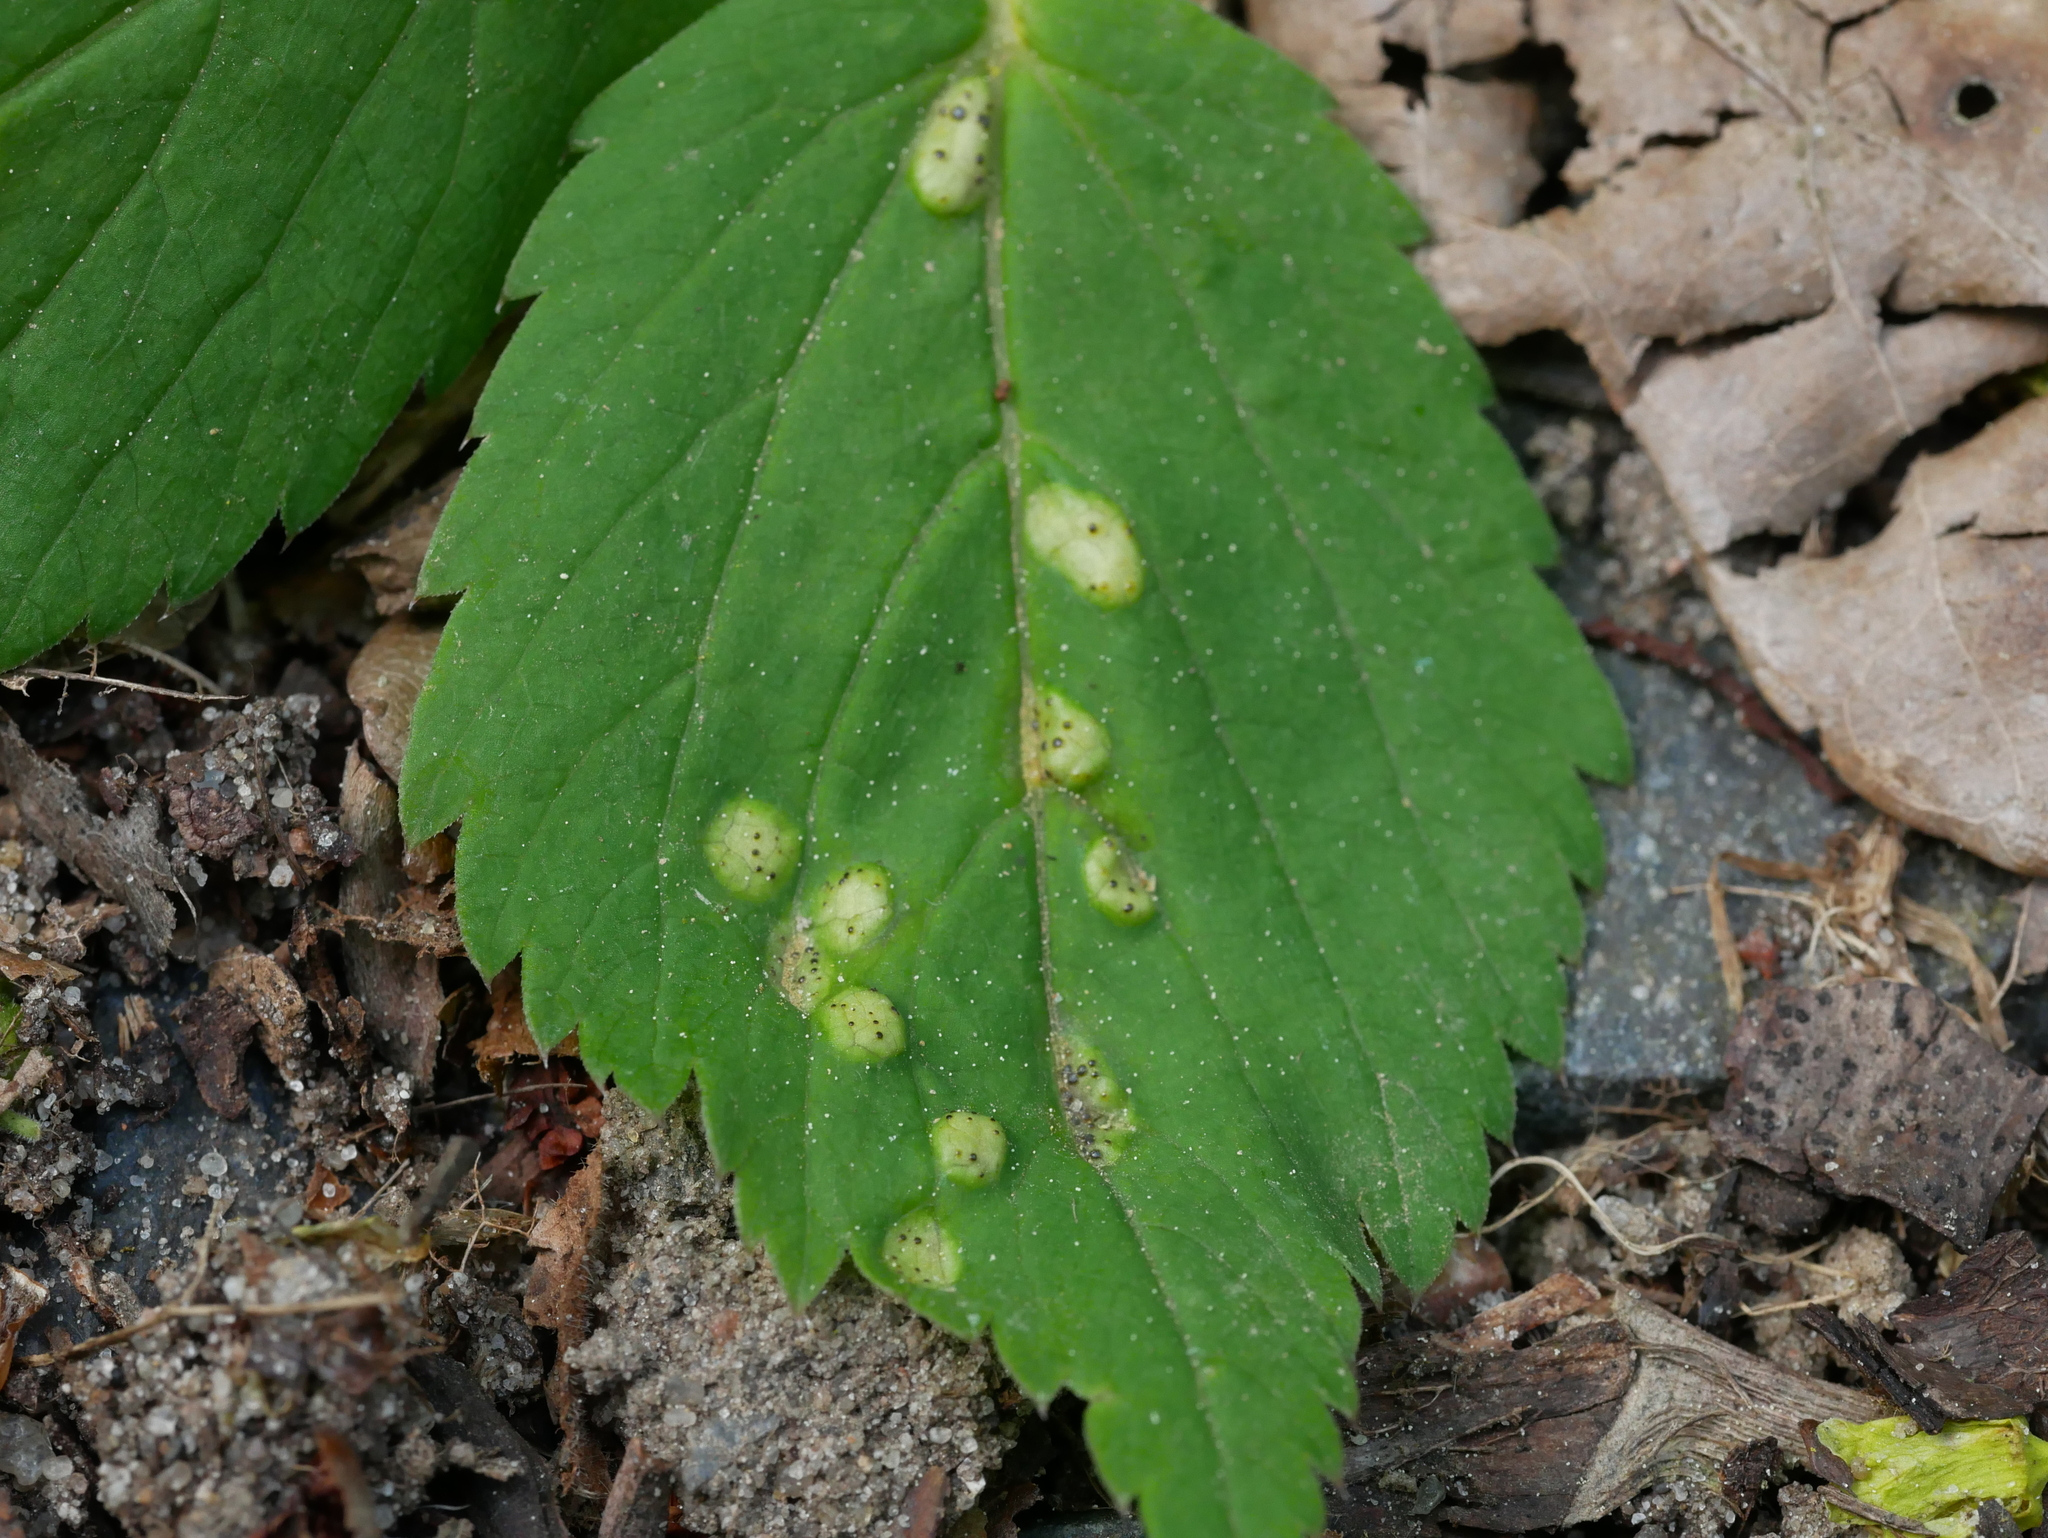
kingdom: Fungi
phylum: Basidiomycota
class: Pucciniomycetes
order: Pucciniales
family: Pucciniaceae
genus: Puccinia
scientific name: Puccinia aegopodii
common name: Ground elder rust
